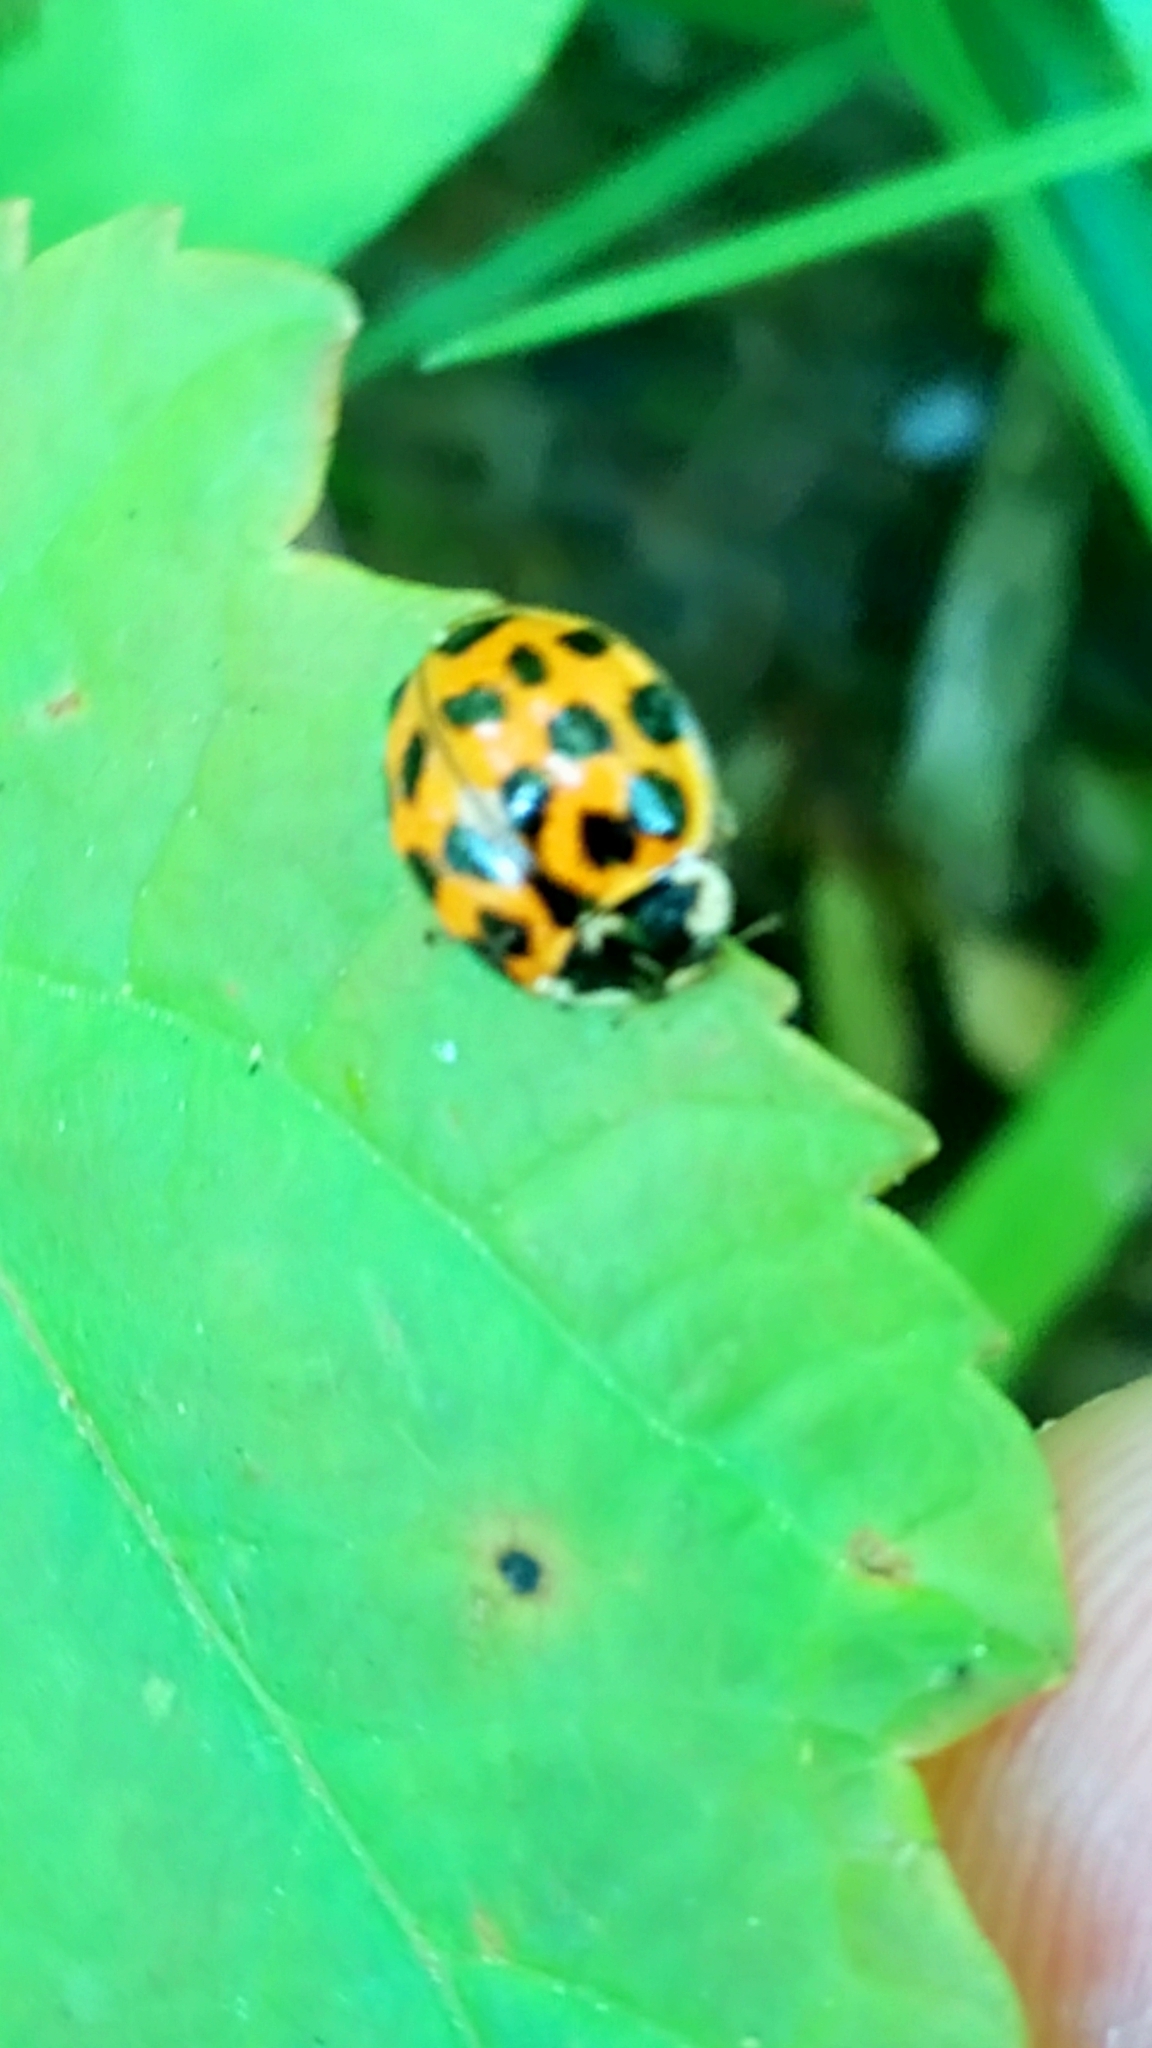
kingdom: Animalia
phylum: Arthropoda
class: Insecta
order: Coleoptera
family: Coccinellidae
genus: Harmonia
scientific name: Harmonia axyridis
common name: Harlequin ladybird
